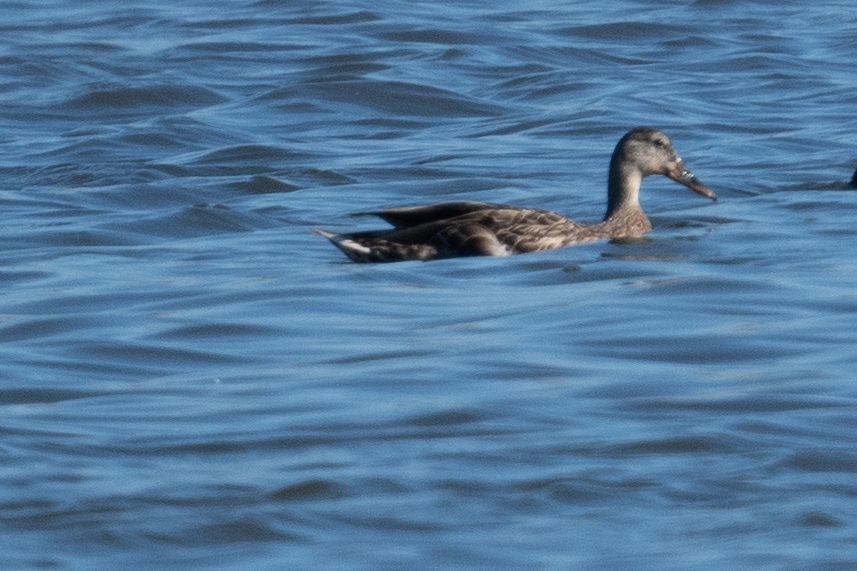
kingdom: Animalia
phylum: Chordata
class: Aves
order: Anseriformes
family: Anatidae
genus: Anas
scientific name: Anas platyrhynchos
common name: Mallard
